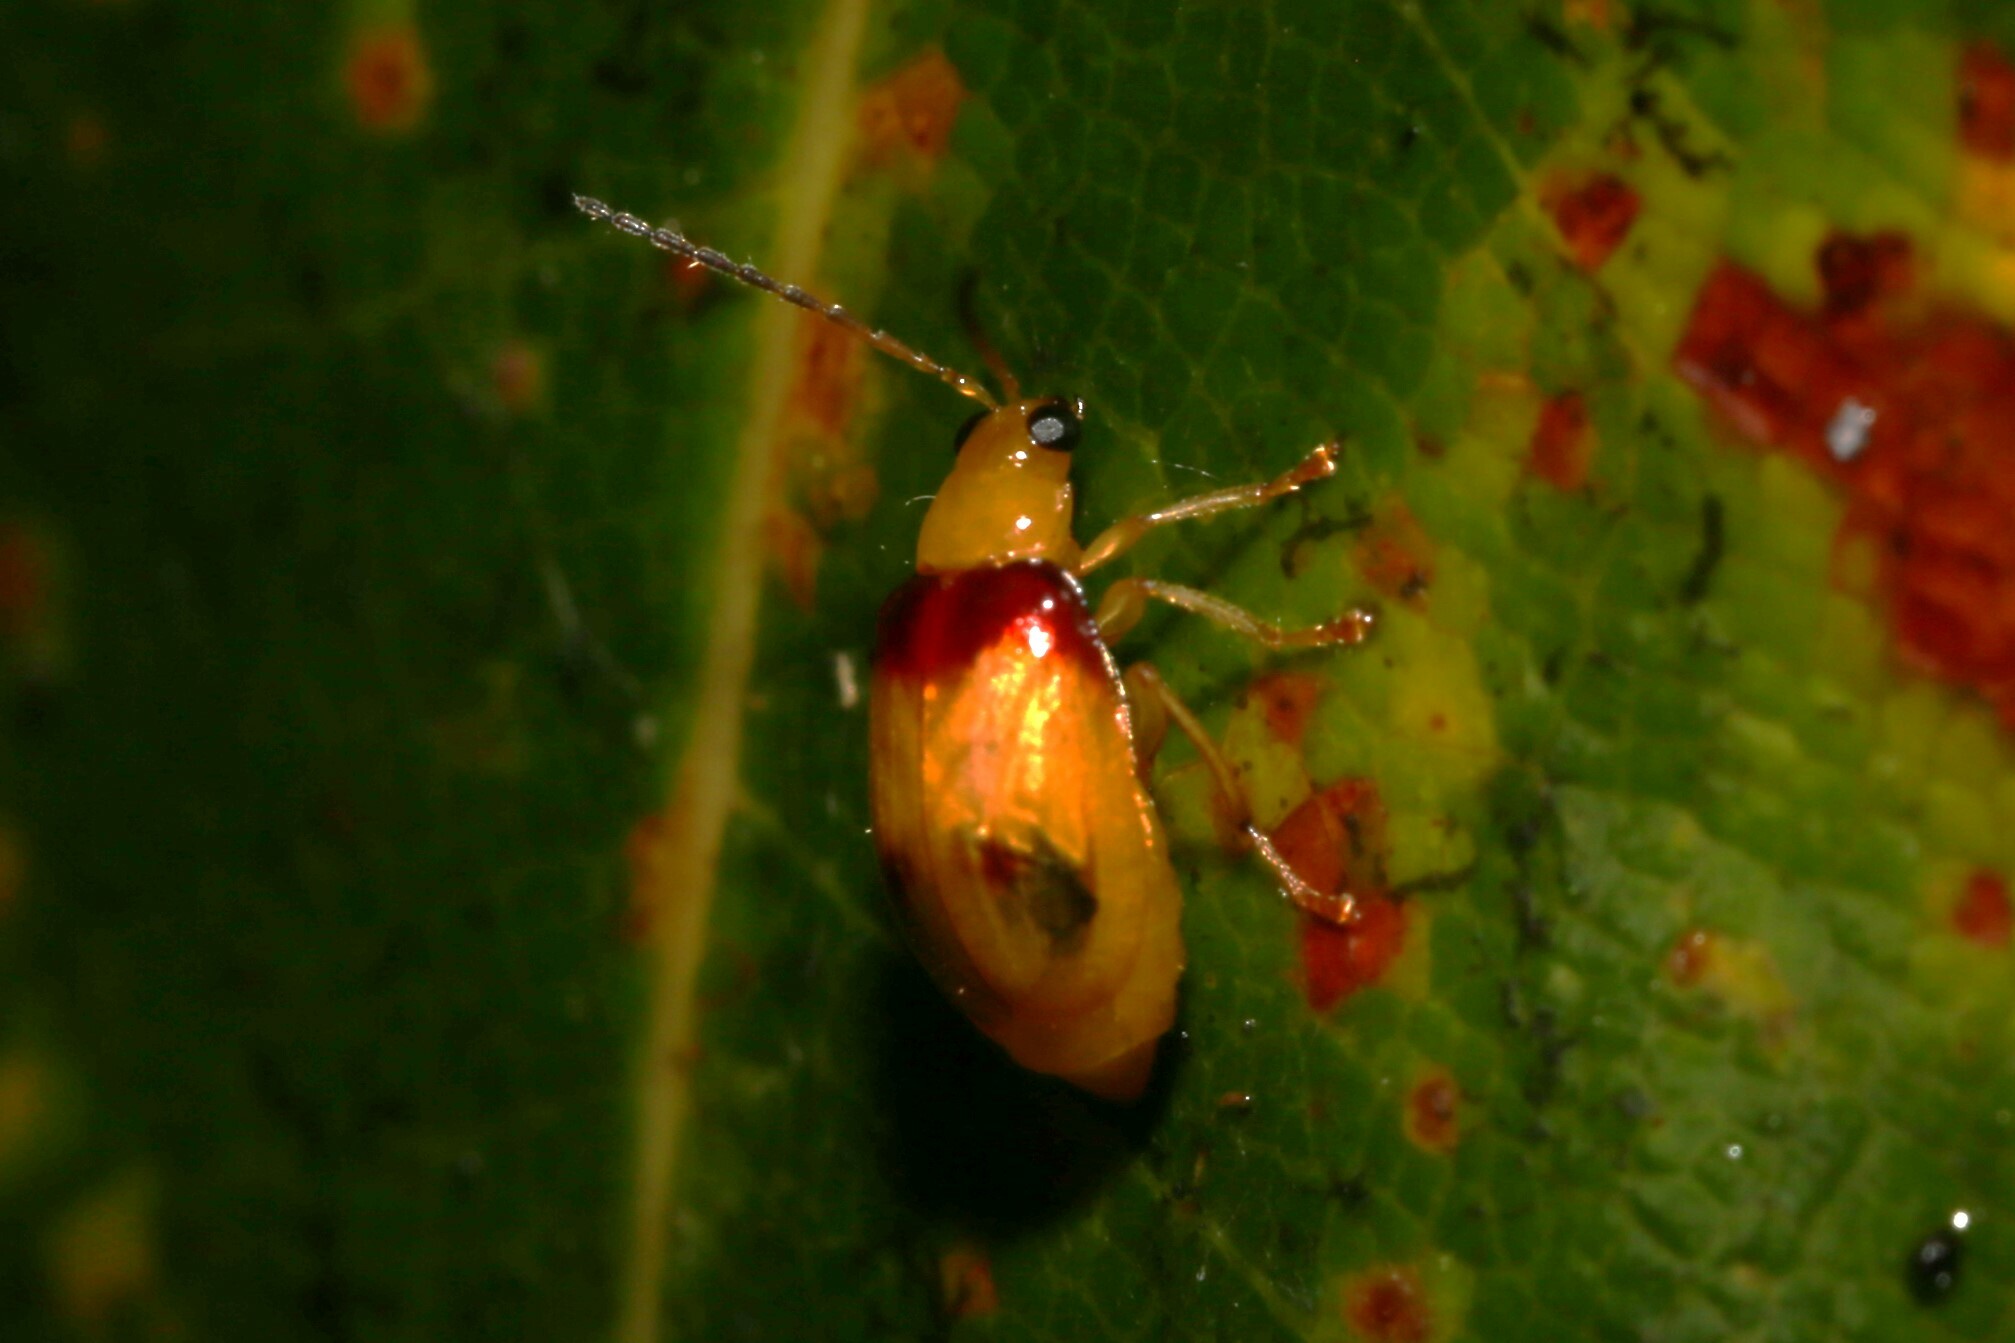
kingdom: Animalia
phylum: Arthropoda
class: Insecta
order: Coleoptera
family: Chrysomelidae
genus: Monolepta
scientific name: Monolepta
